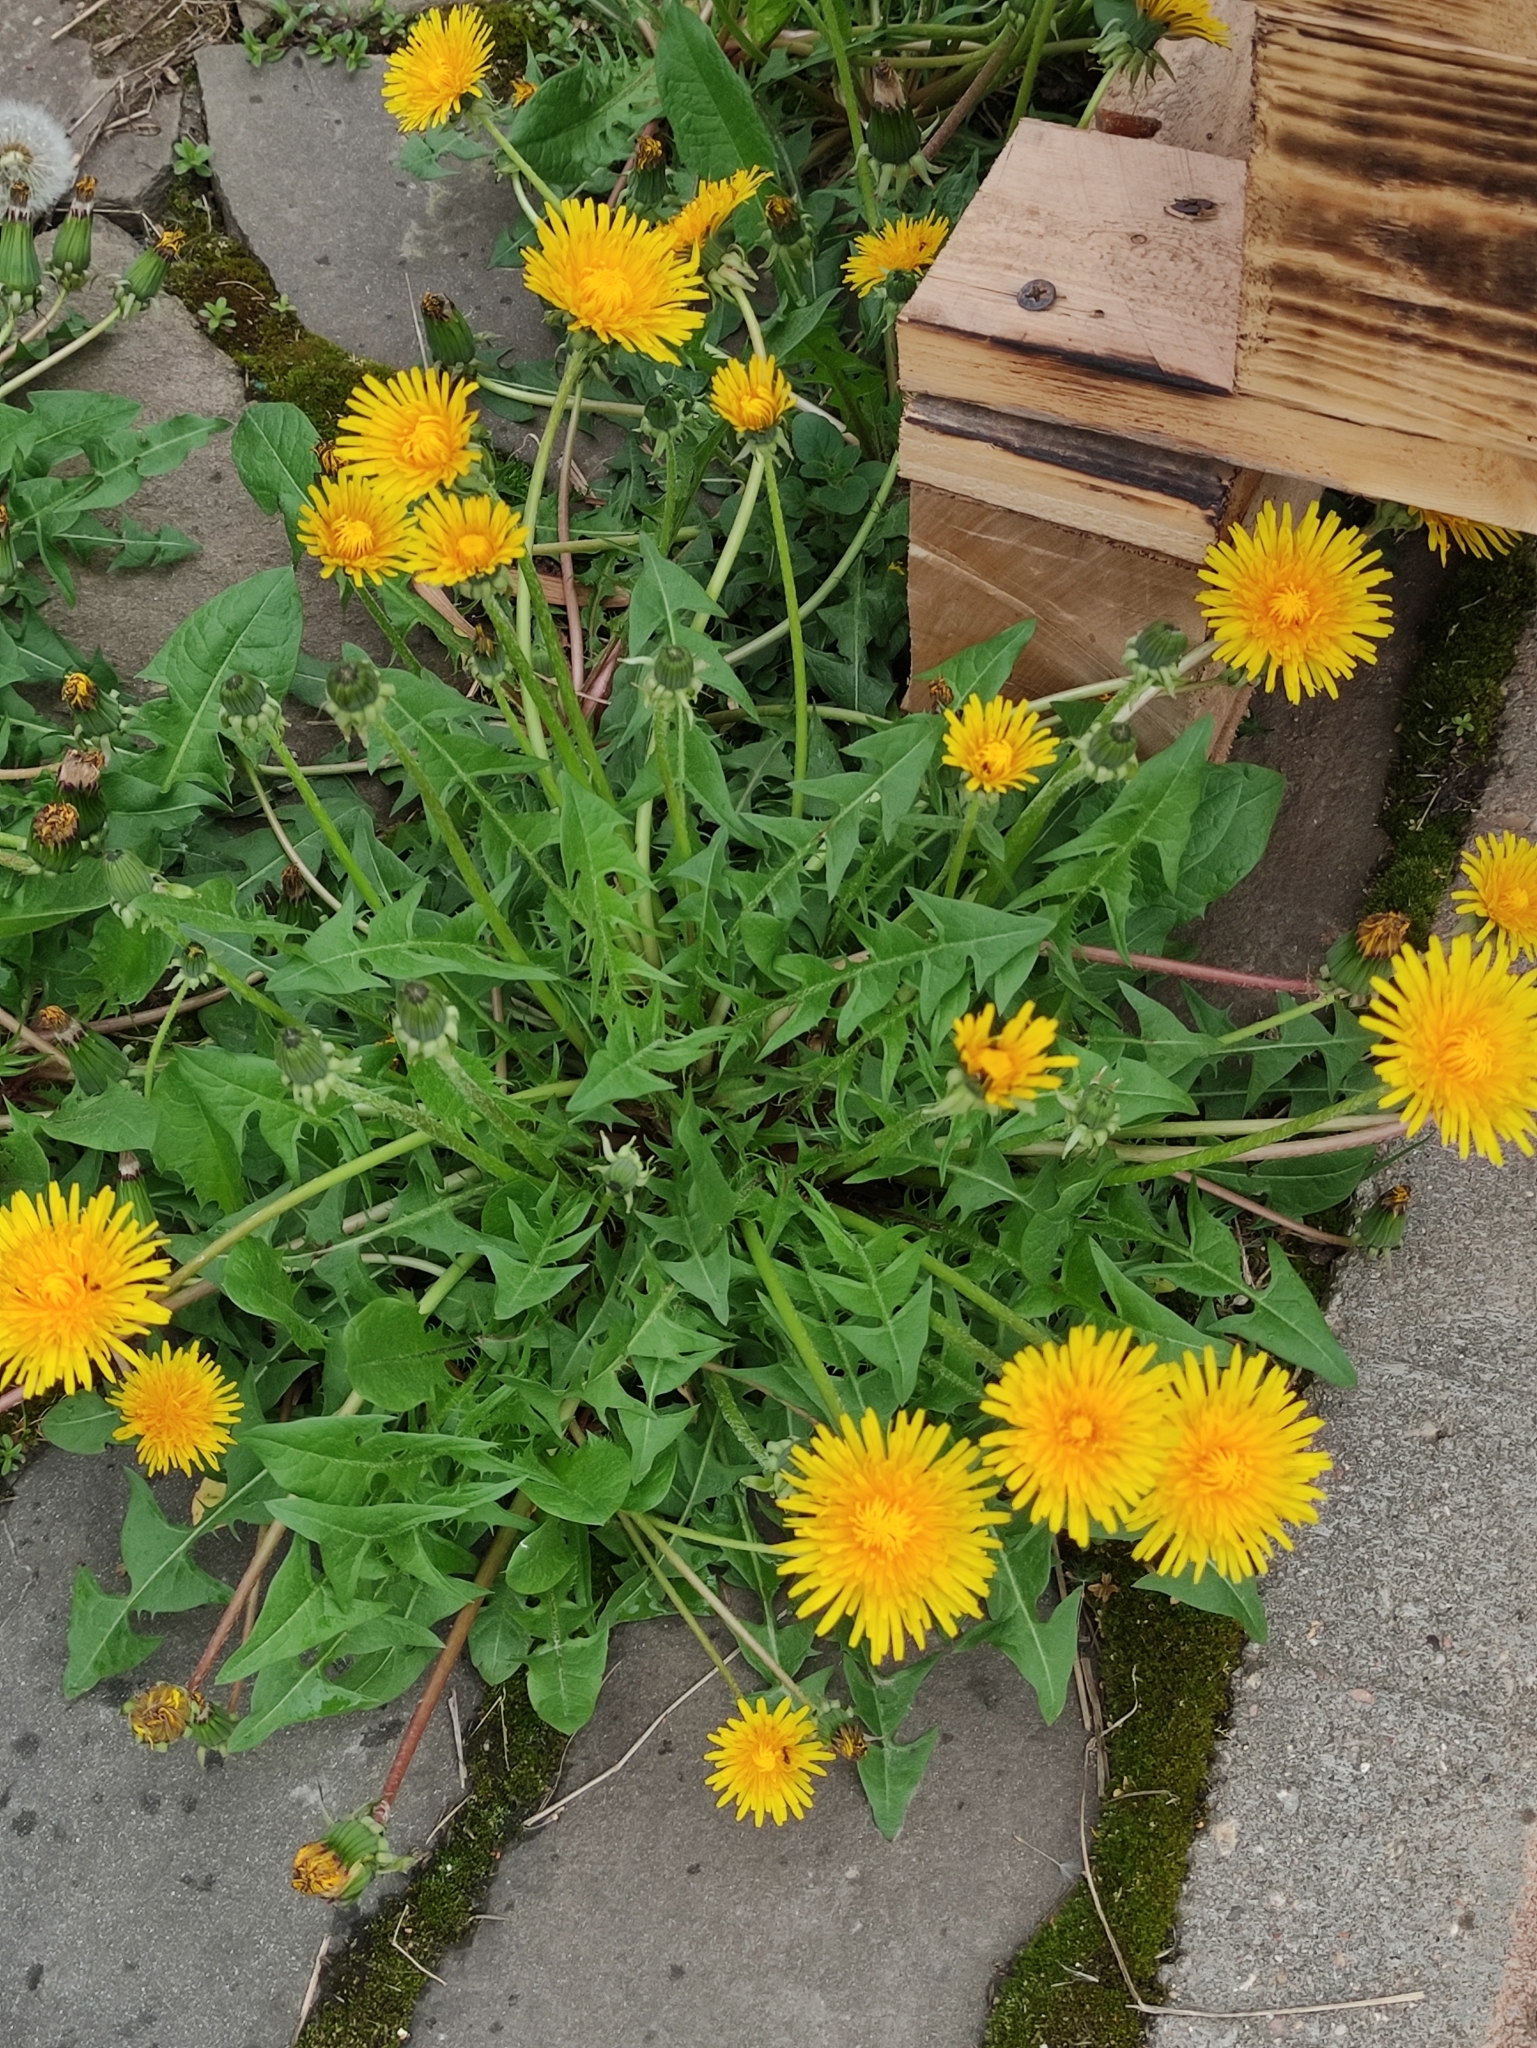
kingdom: Plantae
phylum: Tracheophyta
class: Magnoliopsida
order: Asterales
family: Asteraceae
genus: Taraxacum
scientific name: Taraxacum officinale
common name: Common dandelion
